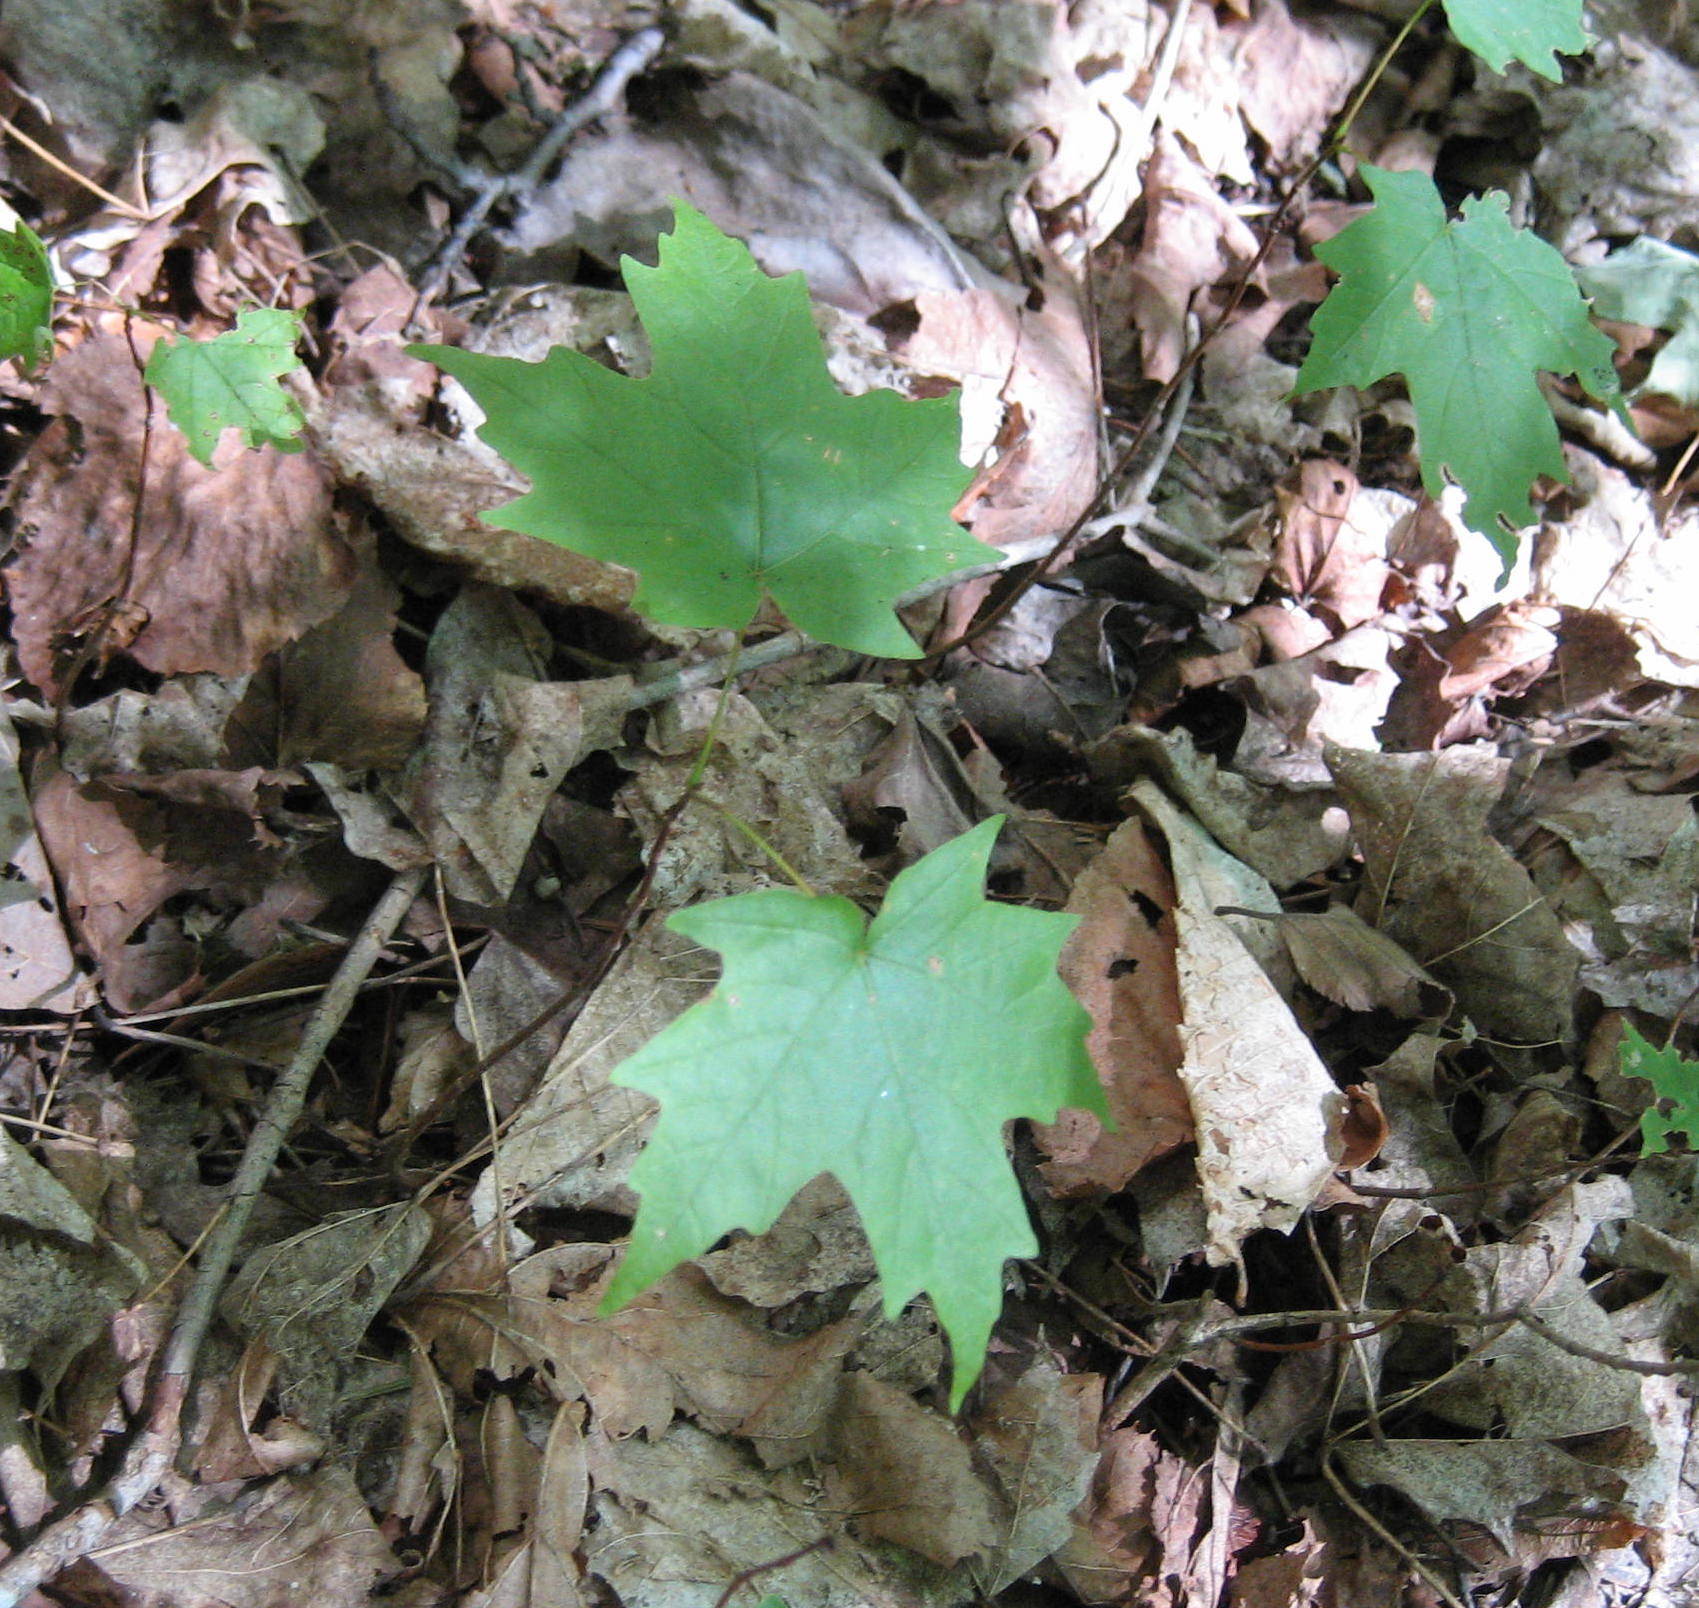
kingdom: Plantae
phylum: Tracheophyta
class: Magnoliopsida
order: Sapindales
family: Sapindaceae
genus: Acer
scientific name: Acer saccharum
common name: Sugar maple
